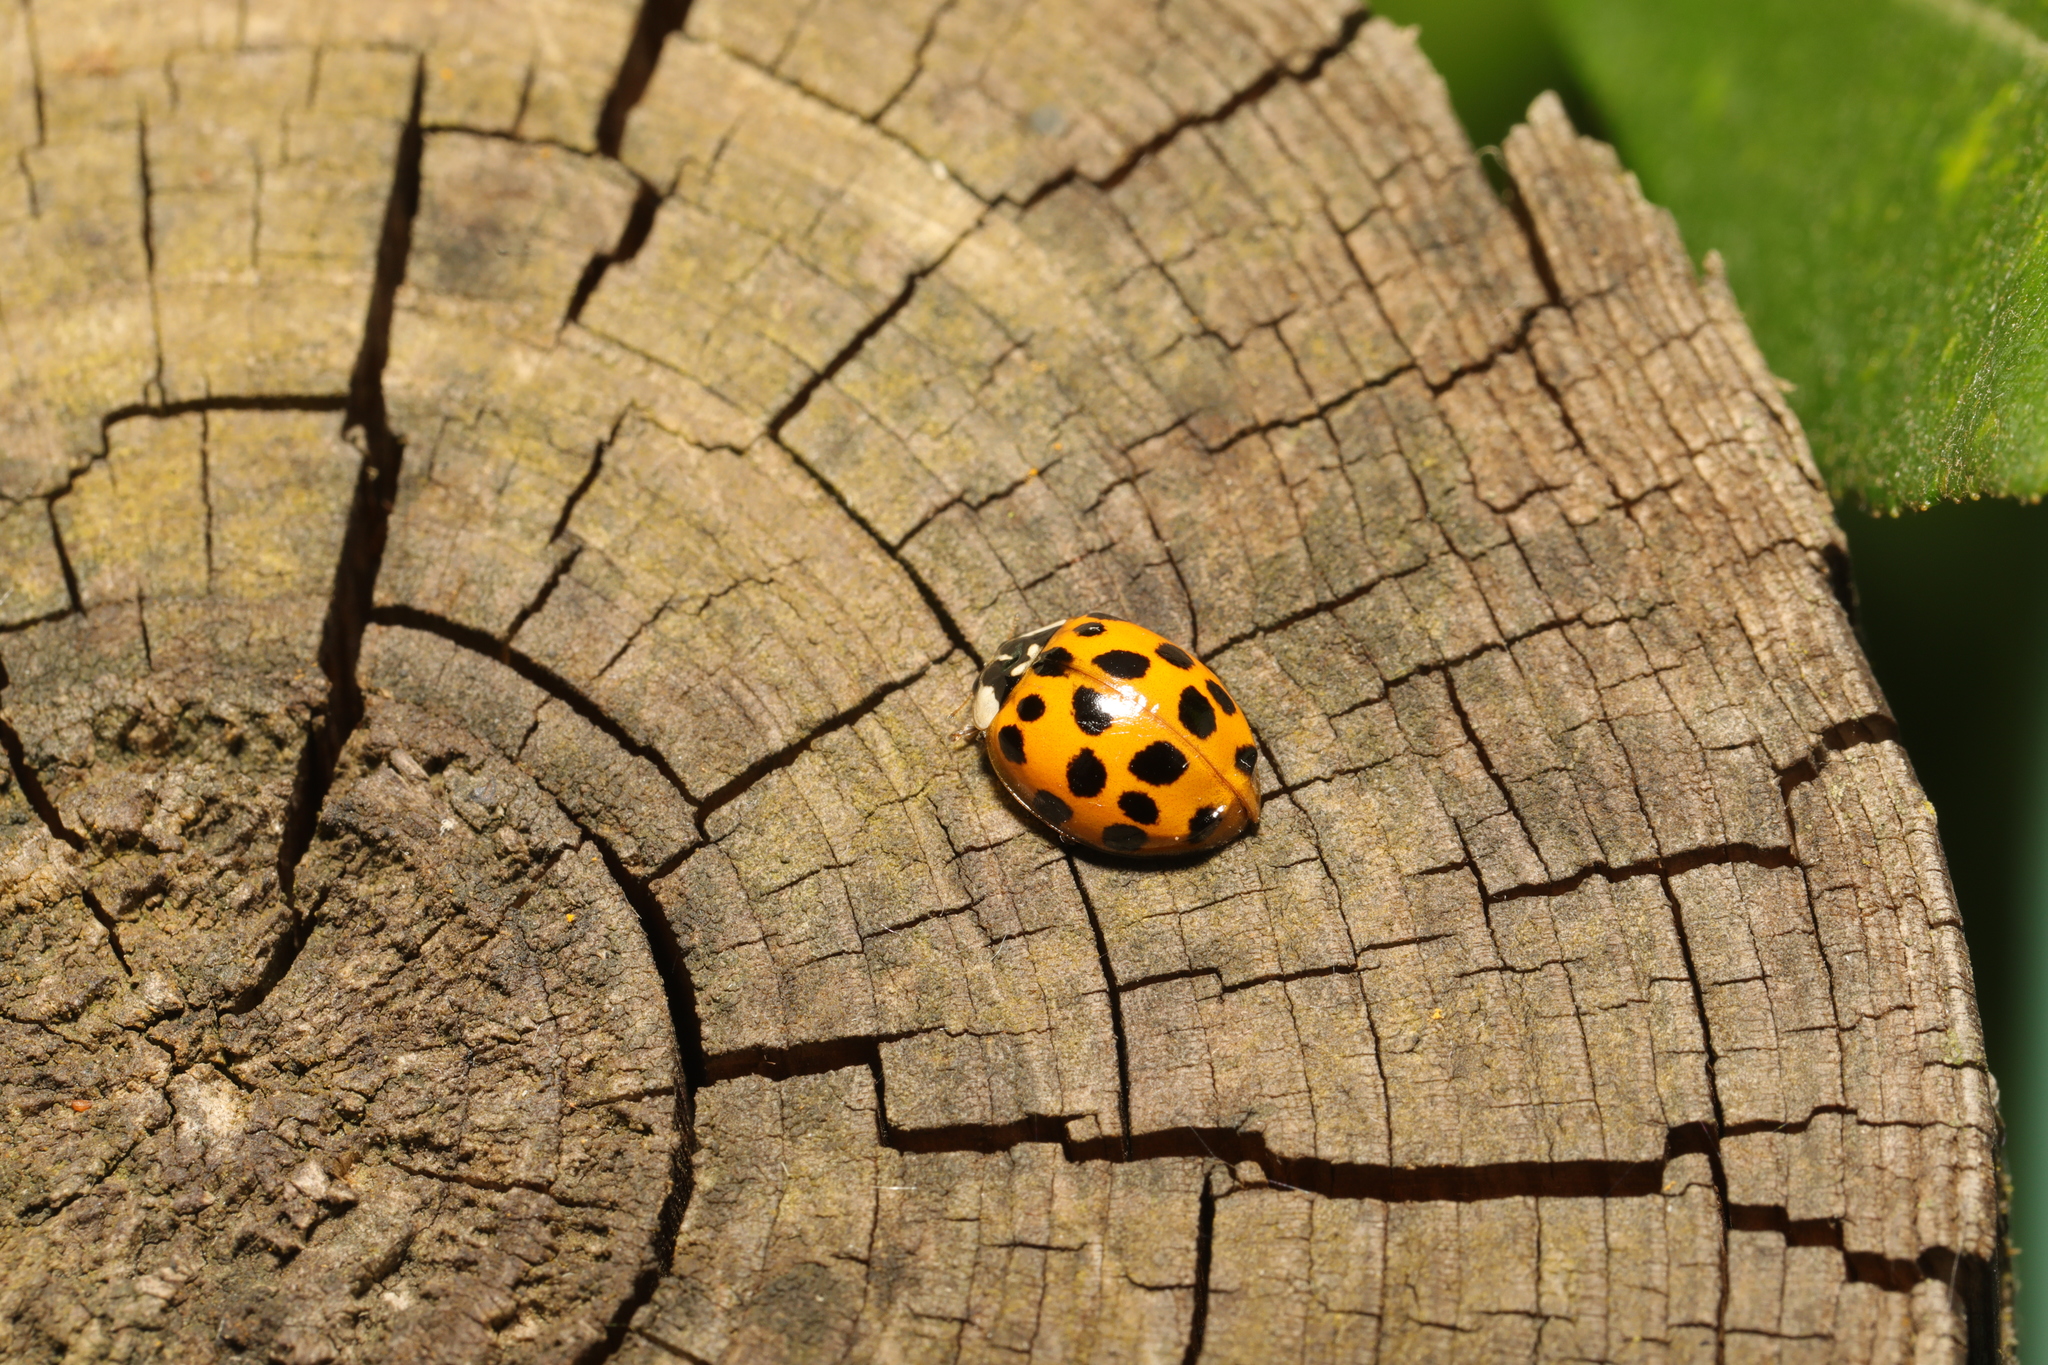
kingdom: Animalia
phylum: Arthropoda
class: Insecta
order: Coleoptera
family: Coccinellidae
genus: Harmonia
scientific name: Harmonia axyridis
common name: Harlequin ladybird
